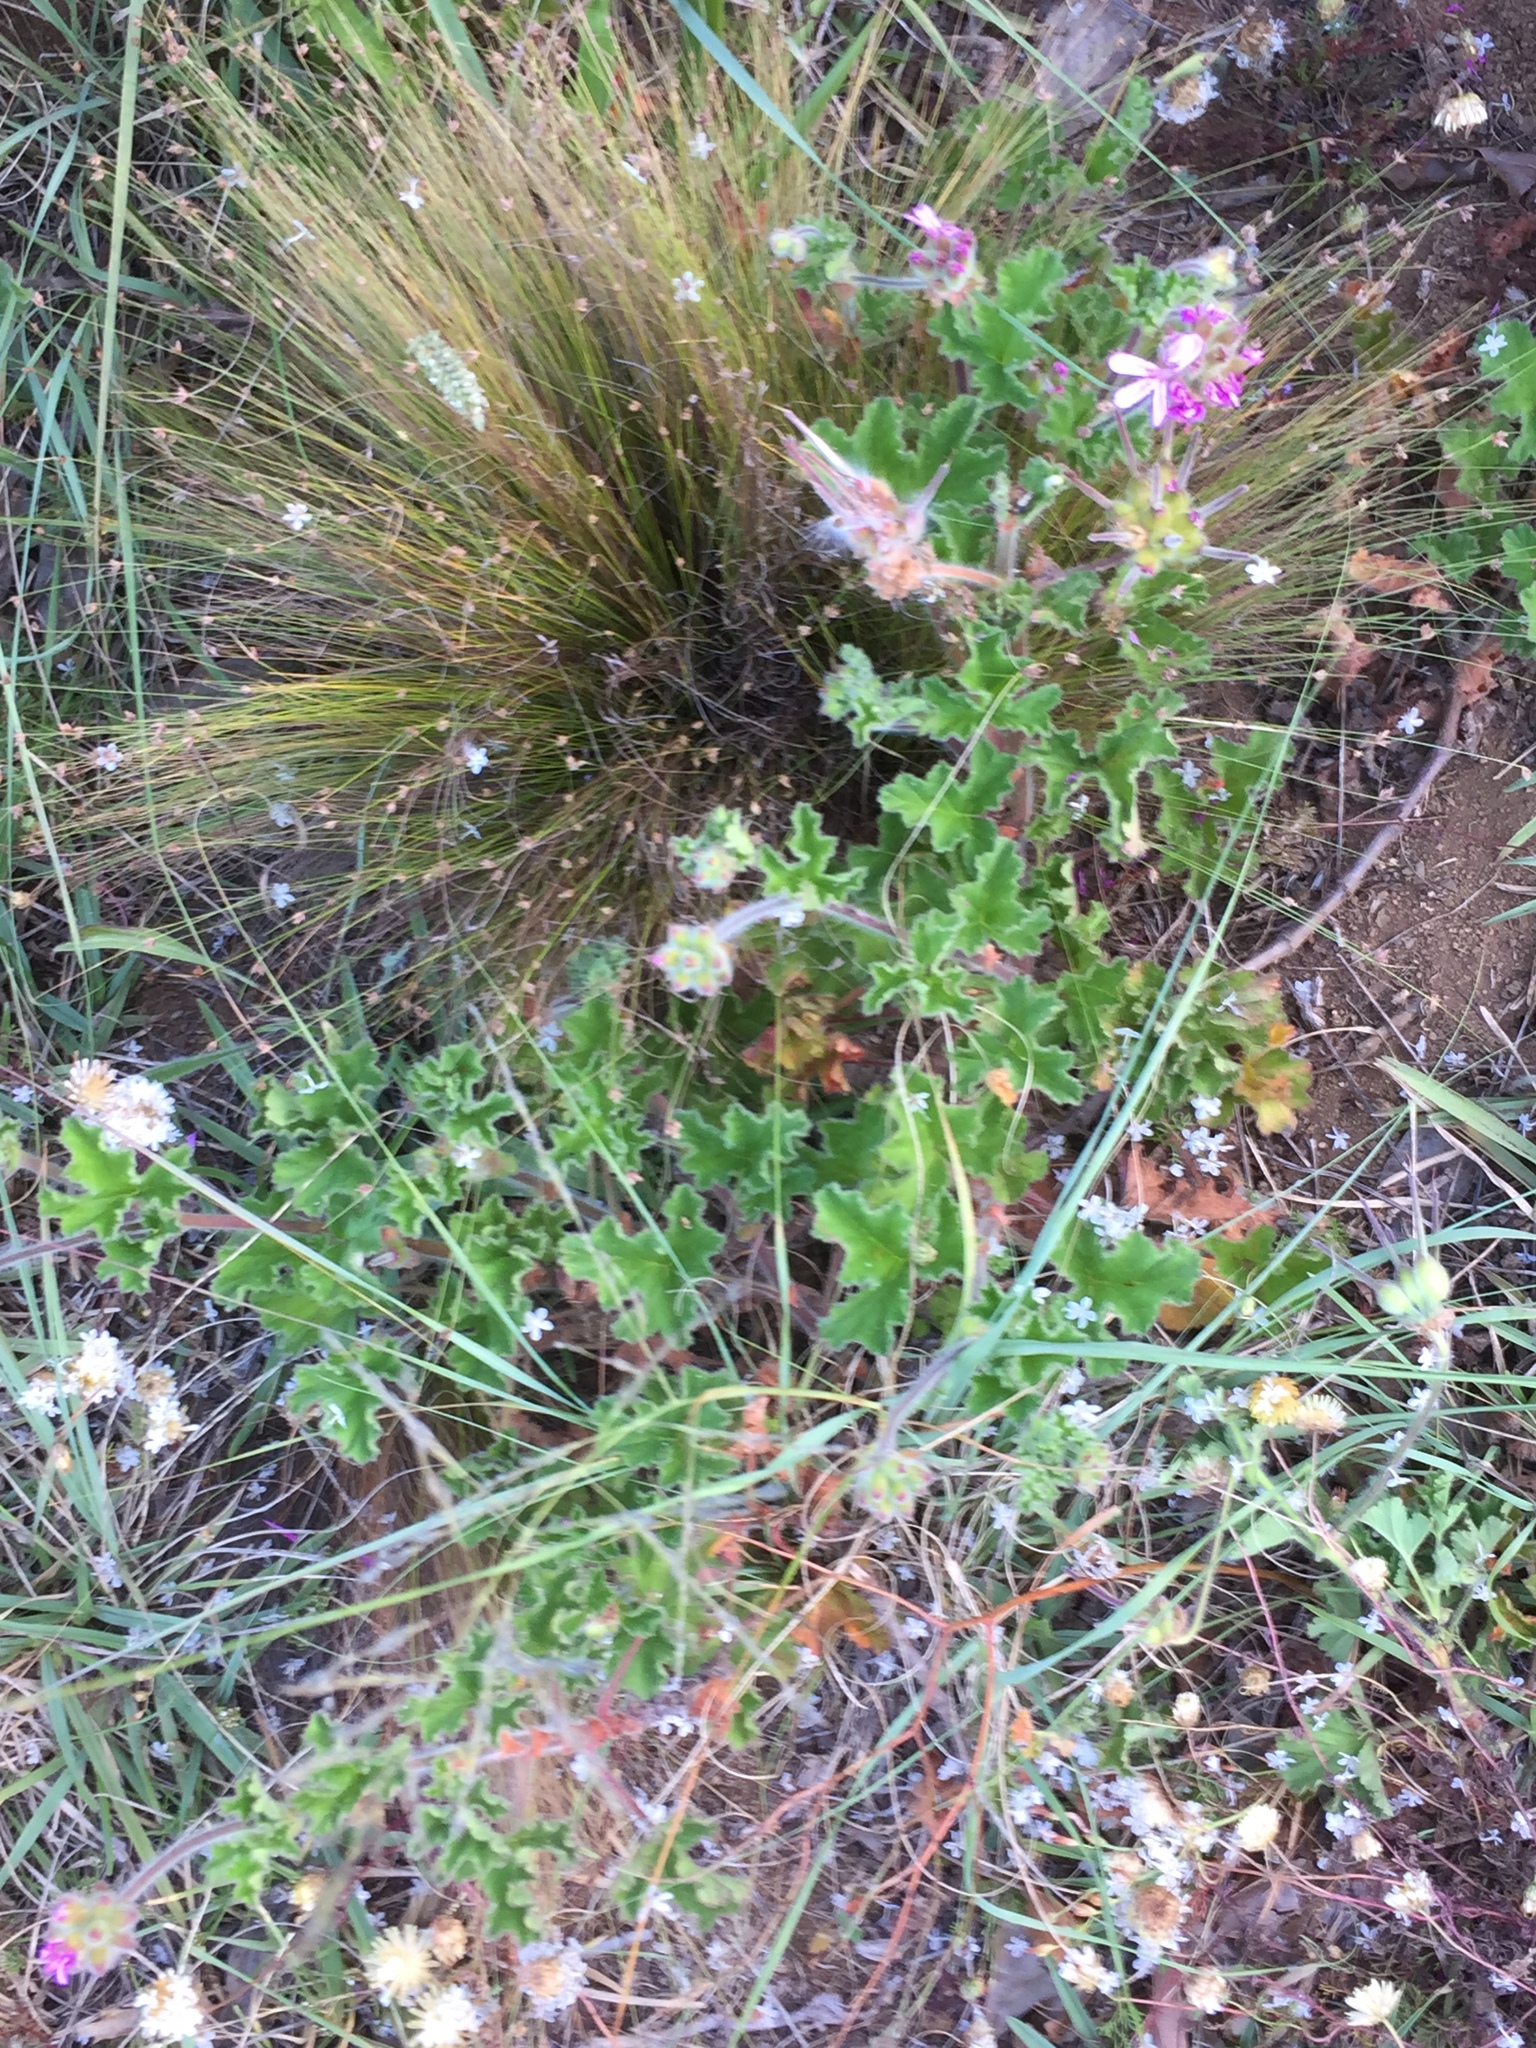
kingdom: Plantae
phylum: Tracheophyta
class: Magnoliopsida
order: Geraniales
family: Geraniaceae
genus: Pelargonium
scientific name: Pelargonium capitatum
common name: Rose scented geranium
